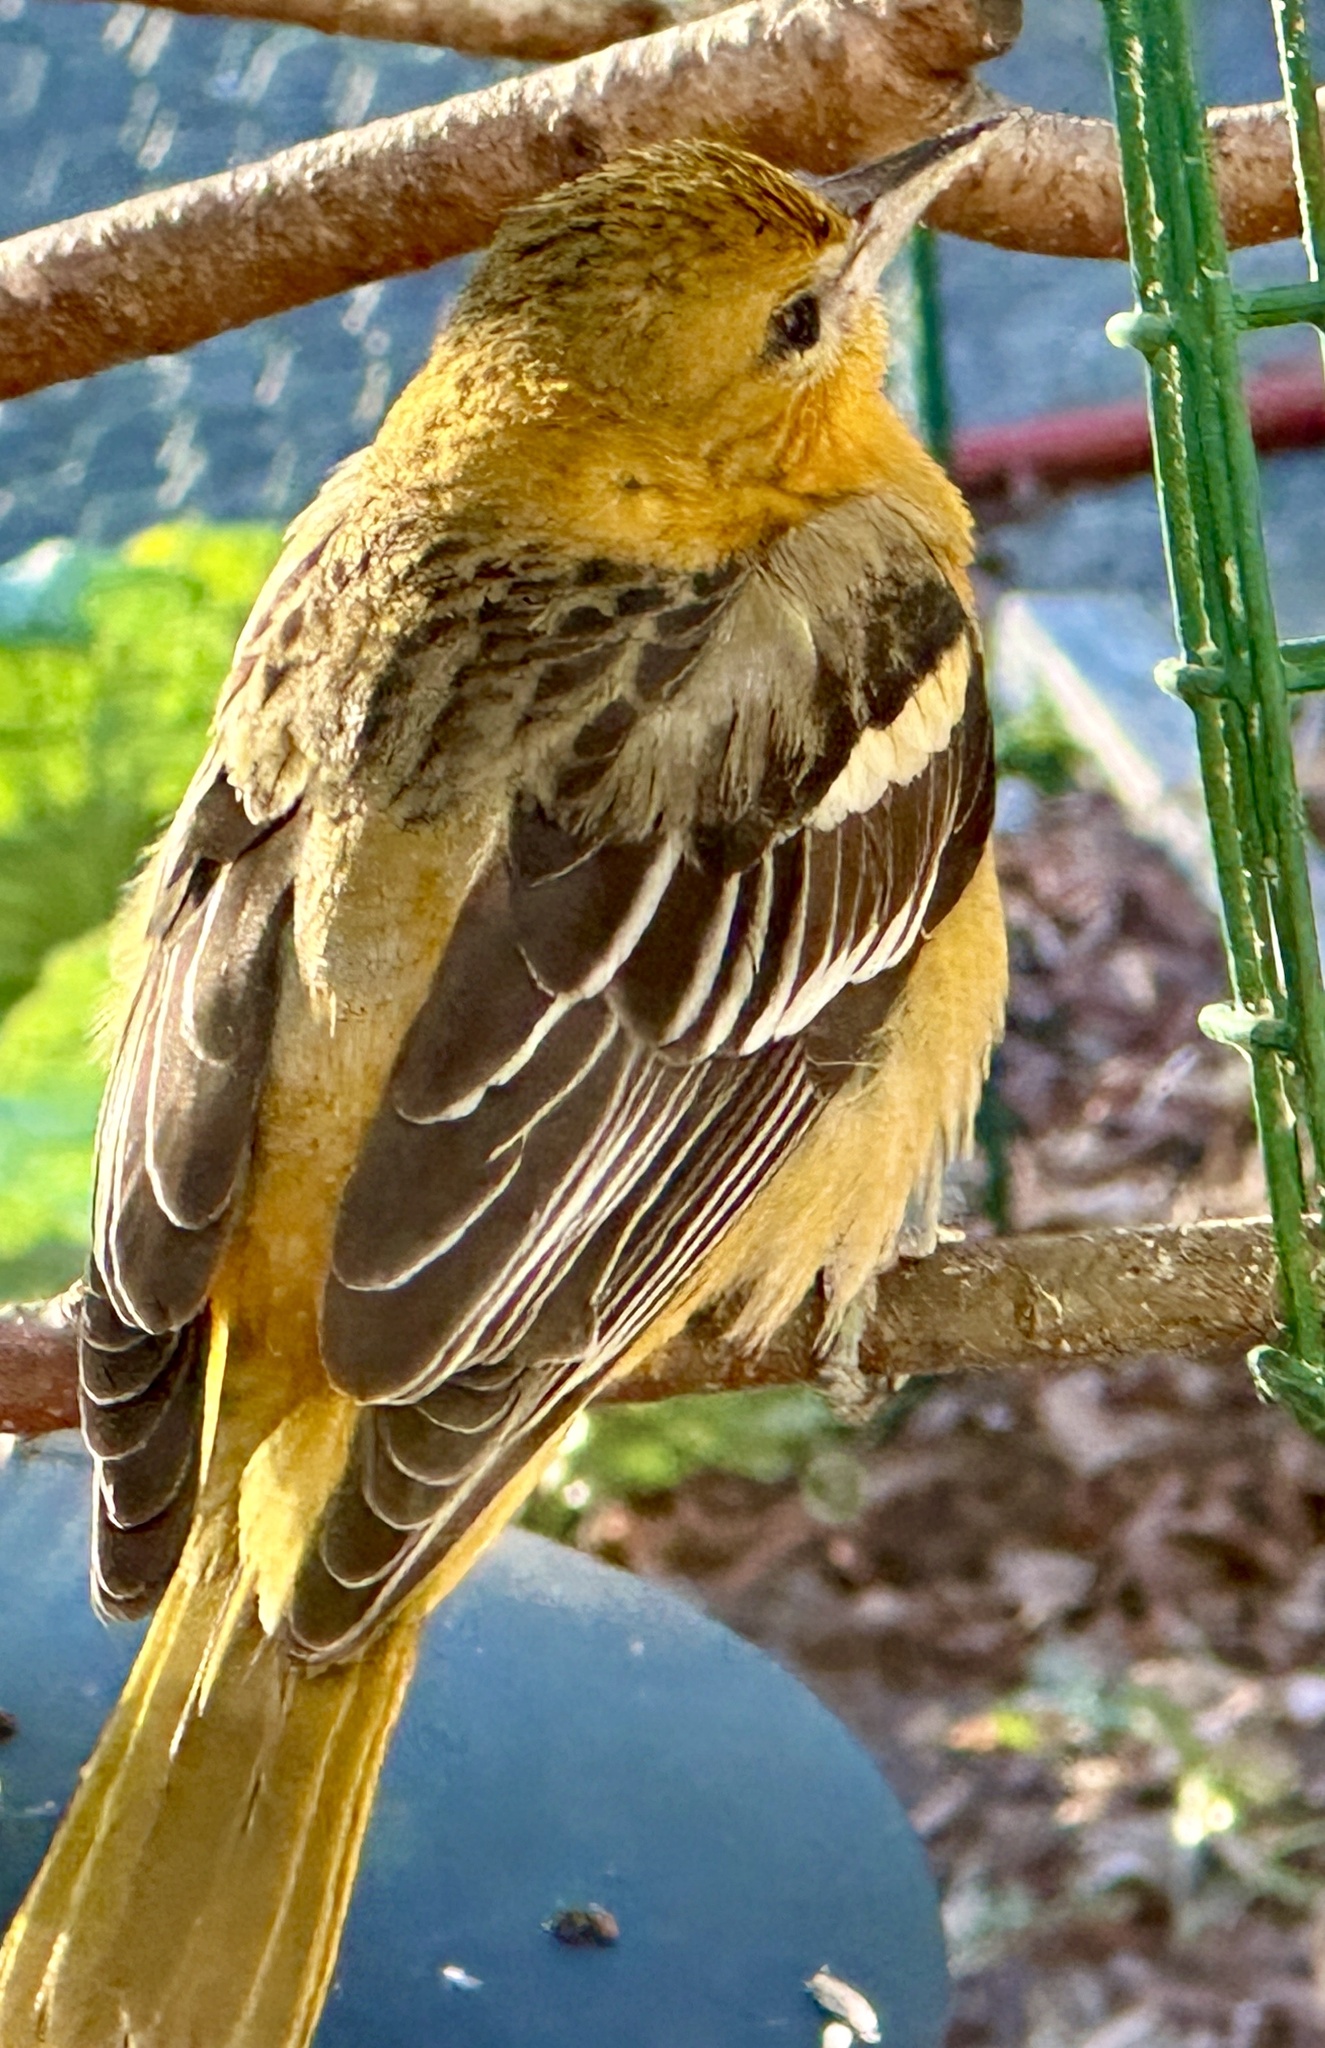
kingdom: Animalia
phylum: Chordata
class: Aves
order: Passeriformes
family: Icteridae
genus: Icterus
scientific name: Icterus galbula
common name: Baltimore oriole
